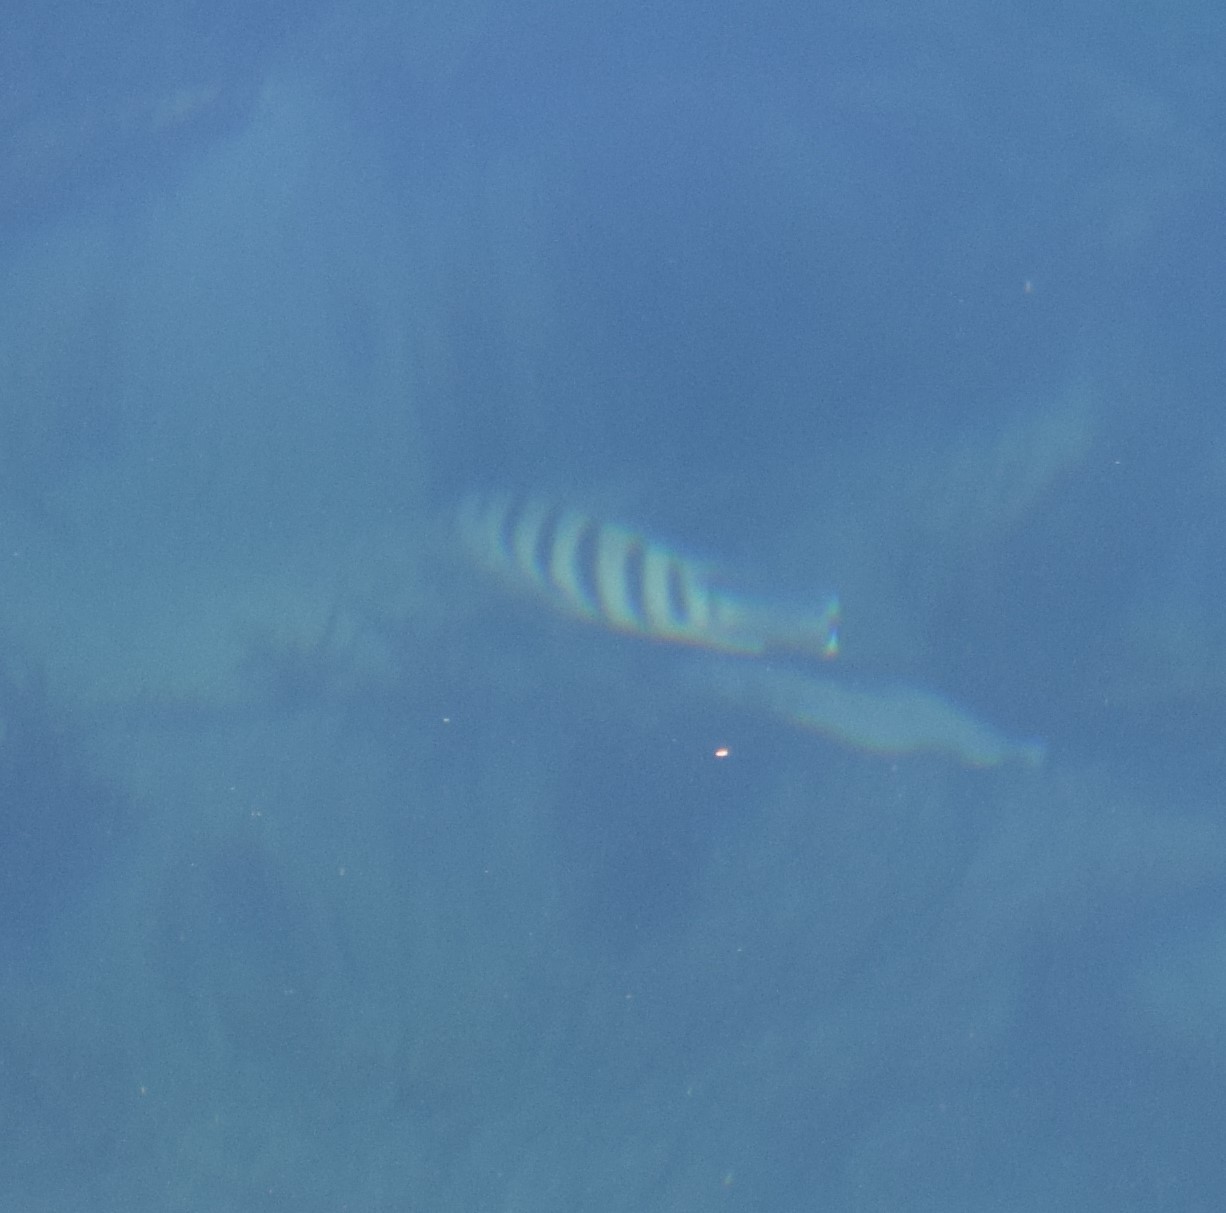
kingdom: Animalia
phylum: Chordata
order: Perciformes
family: Pomacentridae
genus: Abudefduf
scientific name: Abudefduf bengalensis
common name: Bengal sergeant
